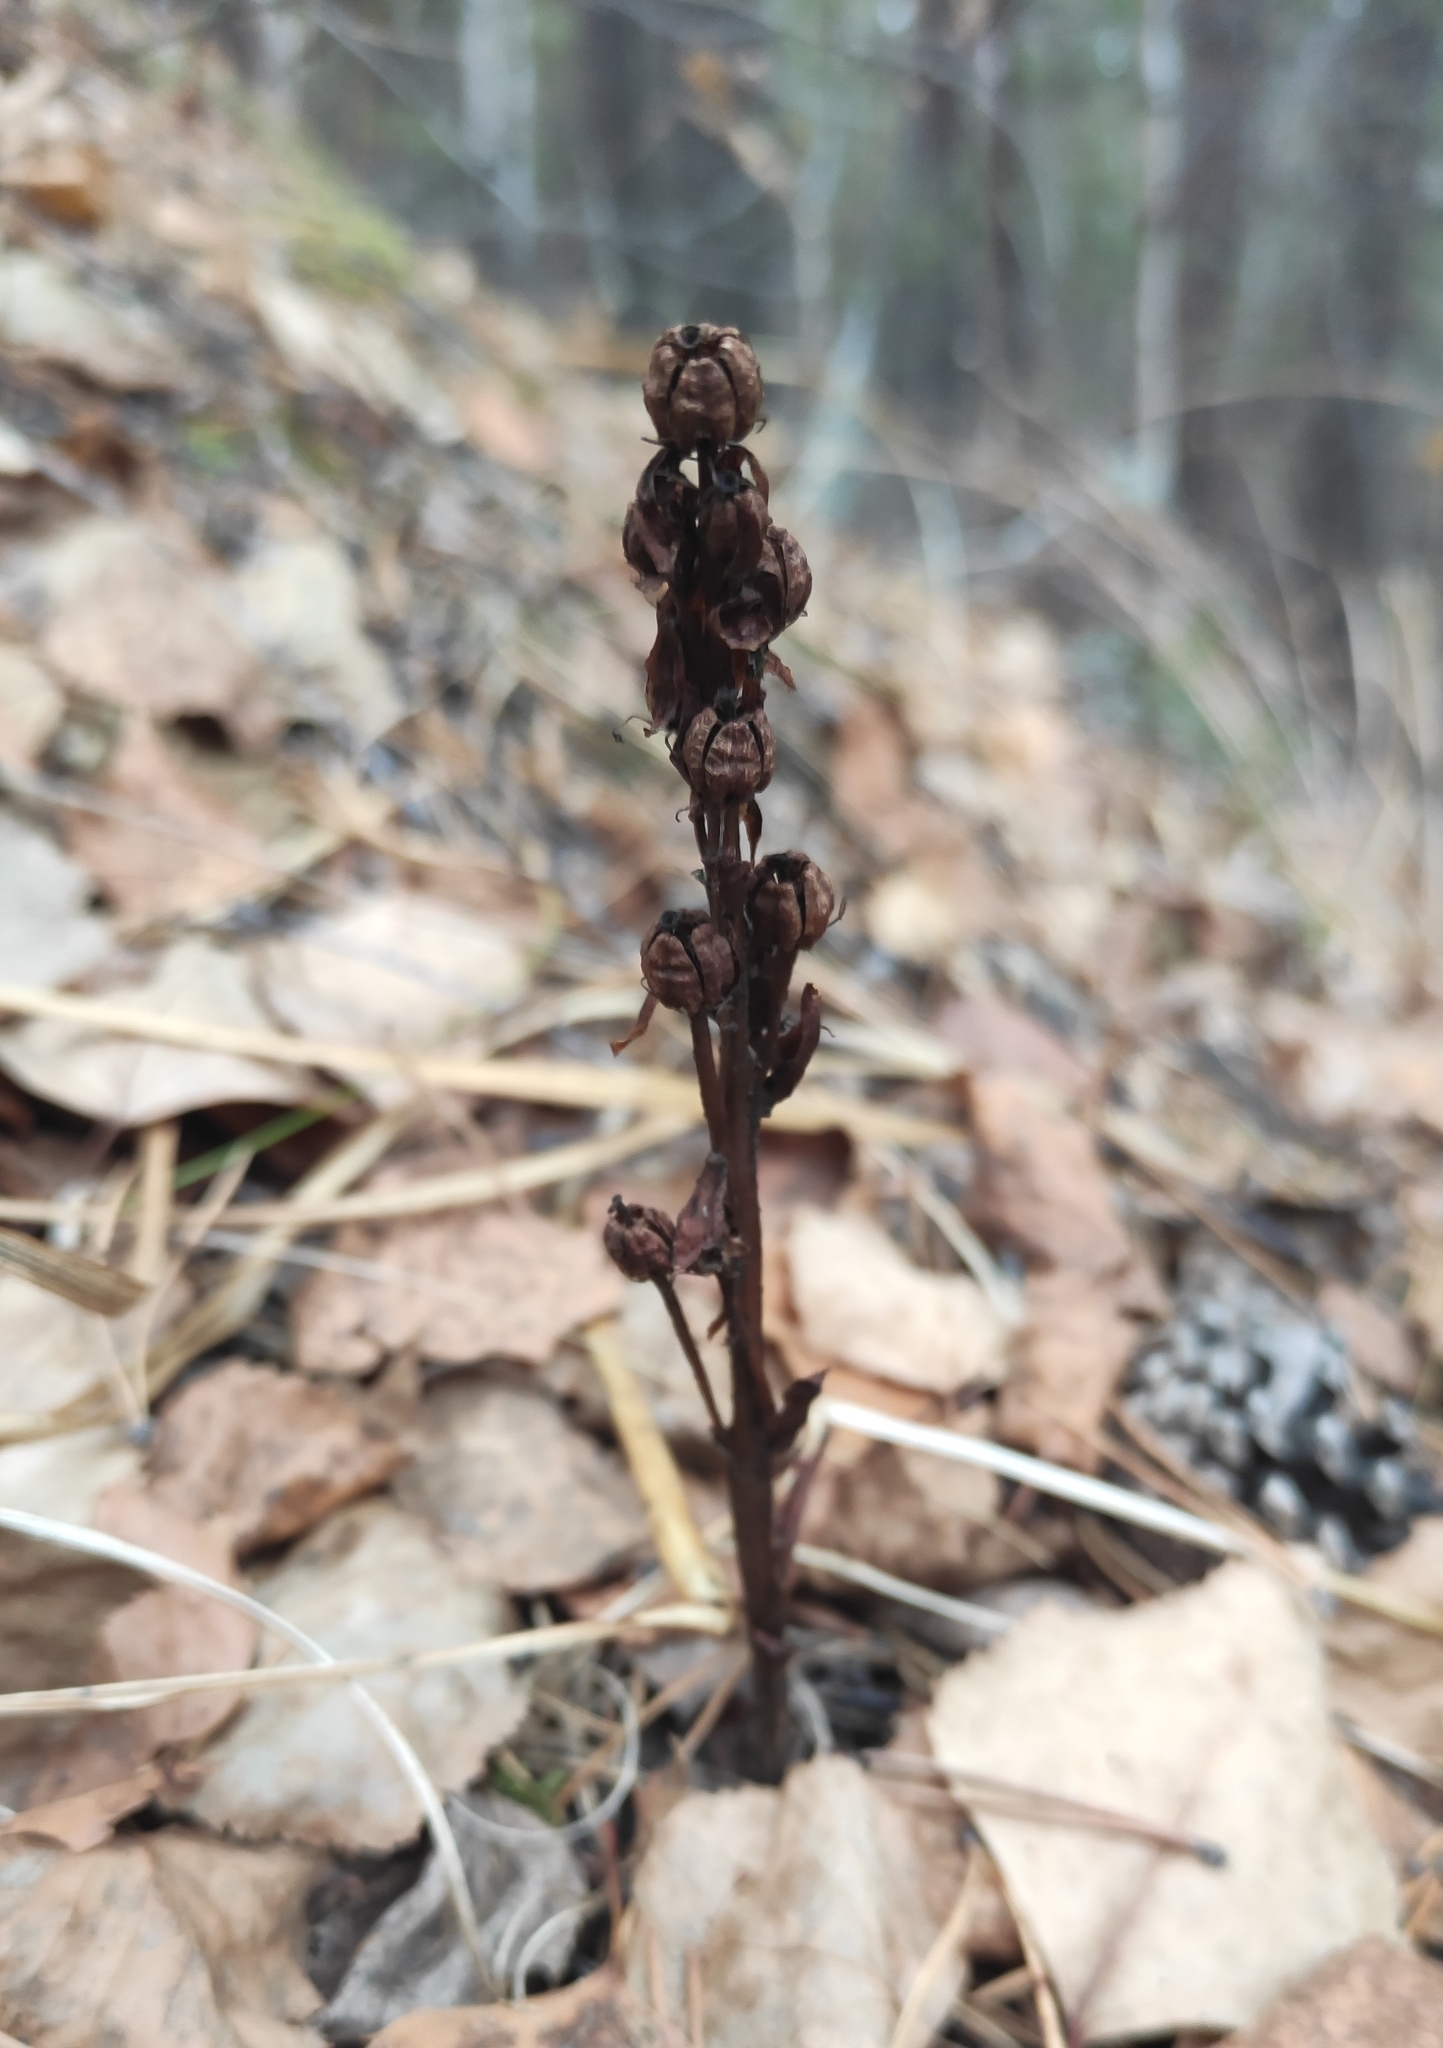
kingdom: Plantae
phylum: Tracheophyta
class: Magnoliopsida
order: Ericales
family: Ericaceae
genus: Hypopitys
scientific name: Hypopitys monotropa
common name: Yellow bird's-nest
